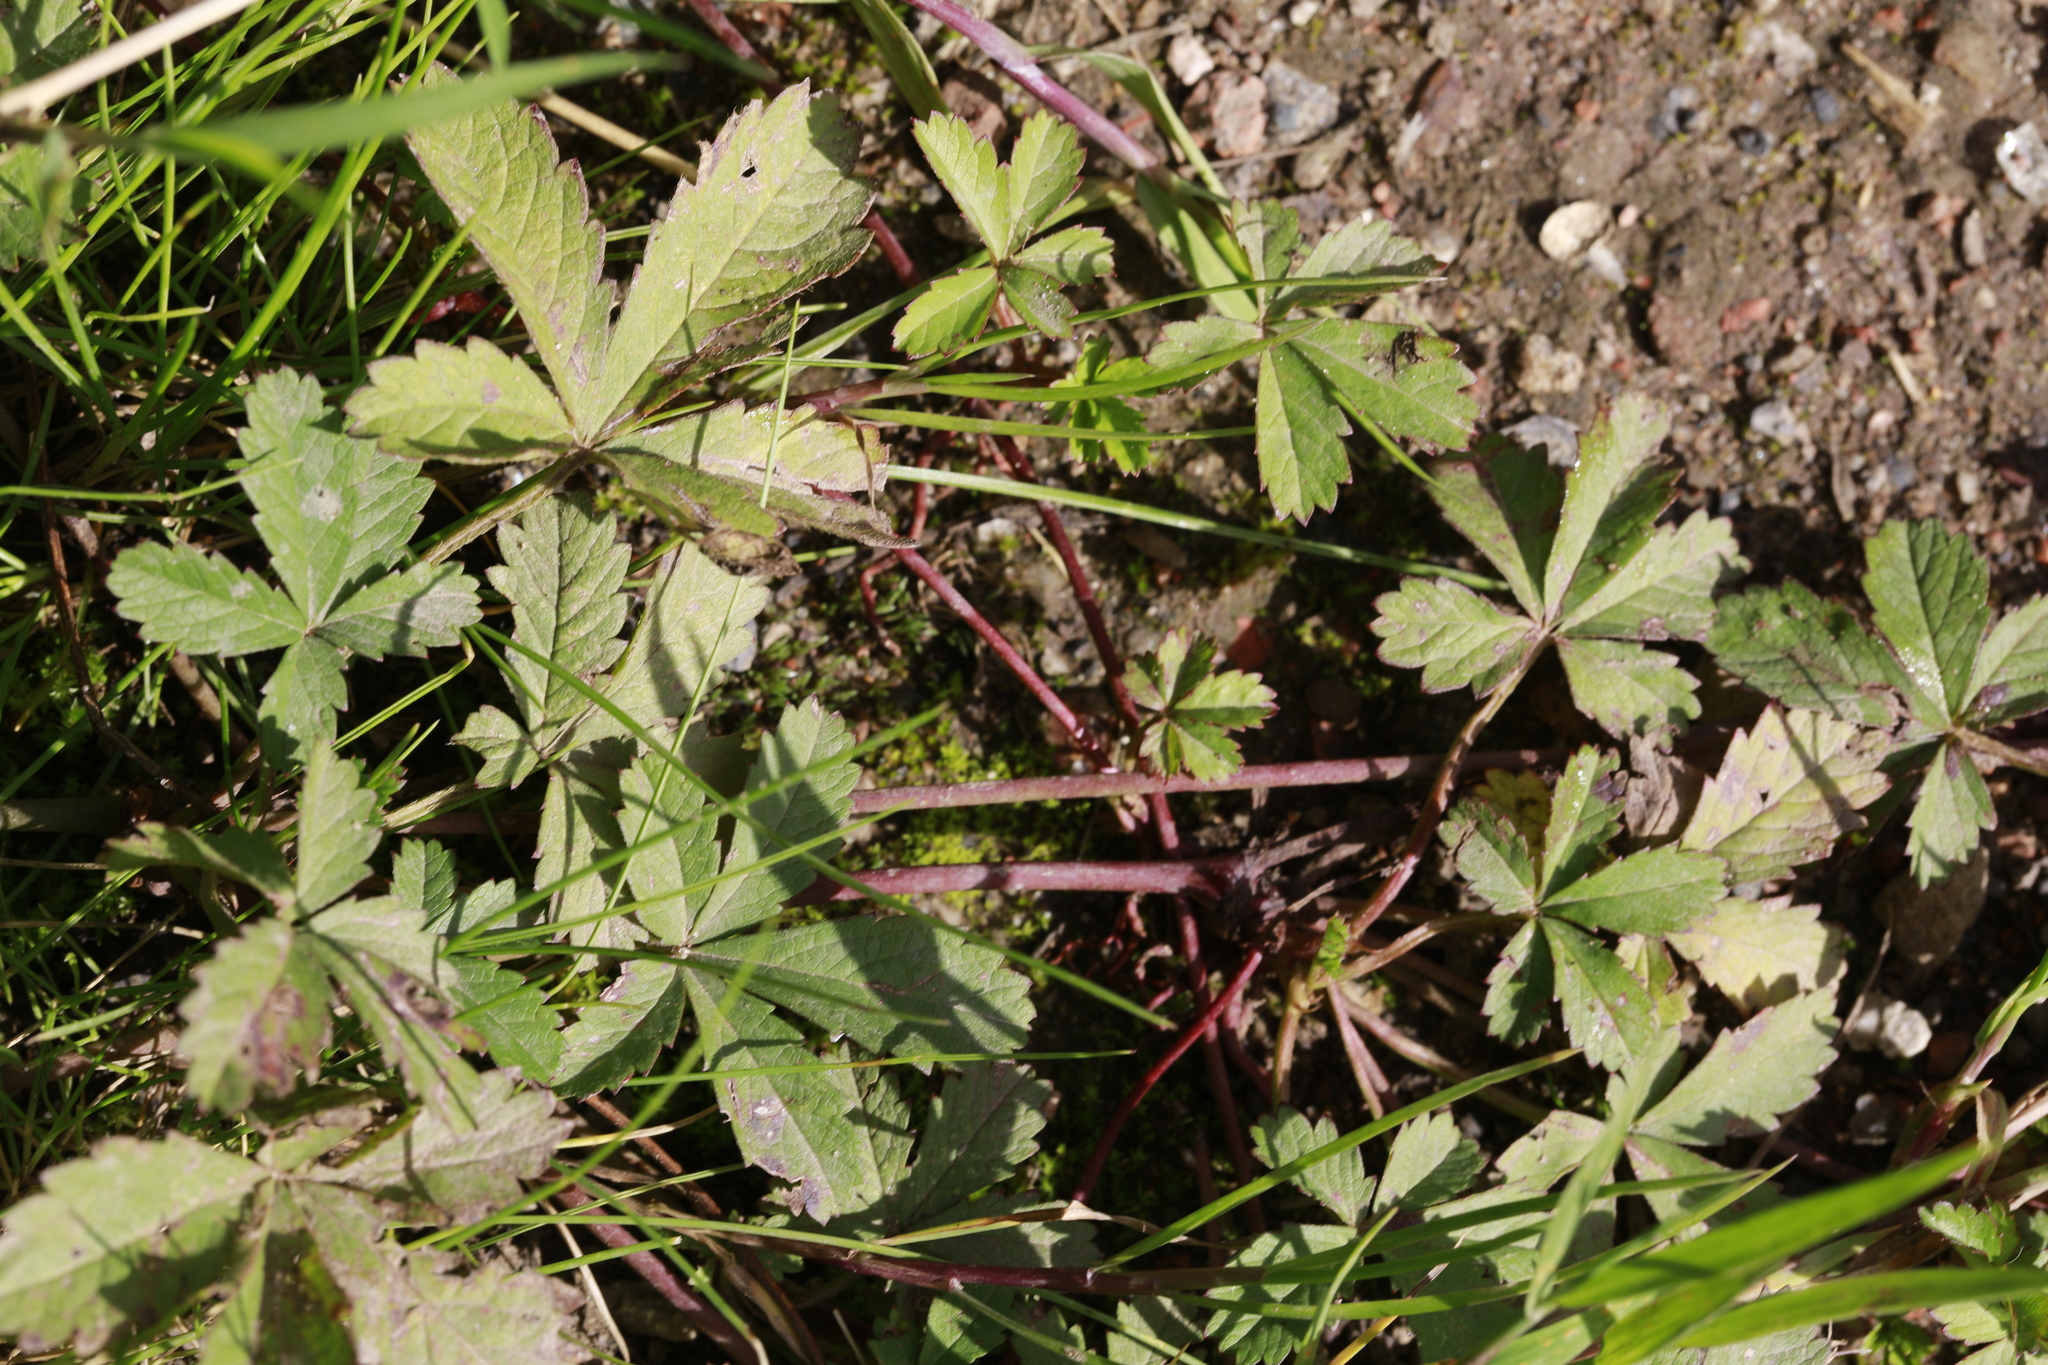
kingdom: Plantae
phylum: Tracheophyta
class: Magnoliopsida
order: Rosales
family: Rosaceae
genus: Potentilla
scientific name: Potentilla reptans
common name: Creeping cinquefoil
